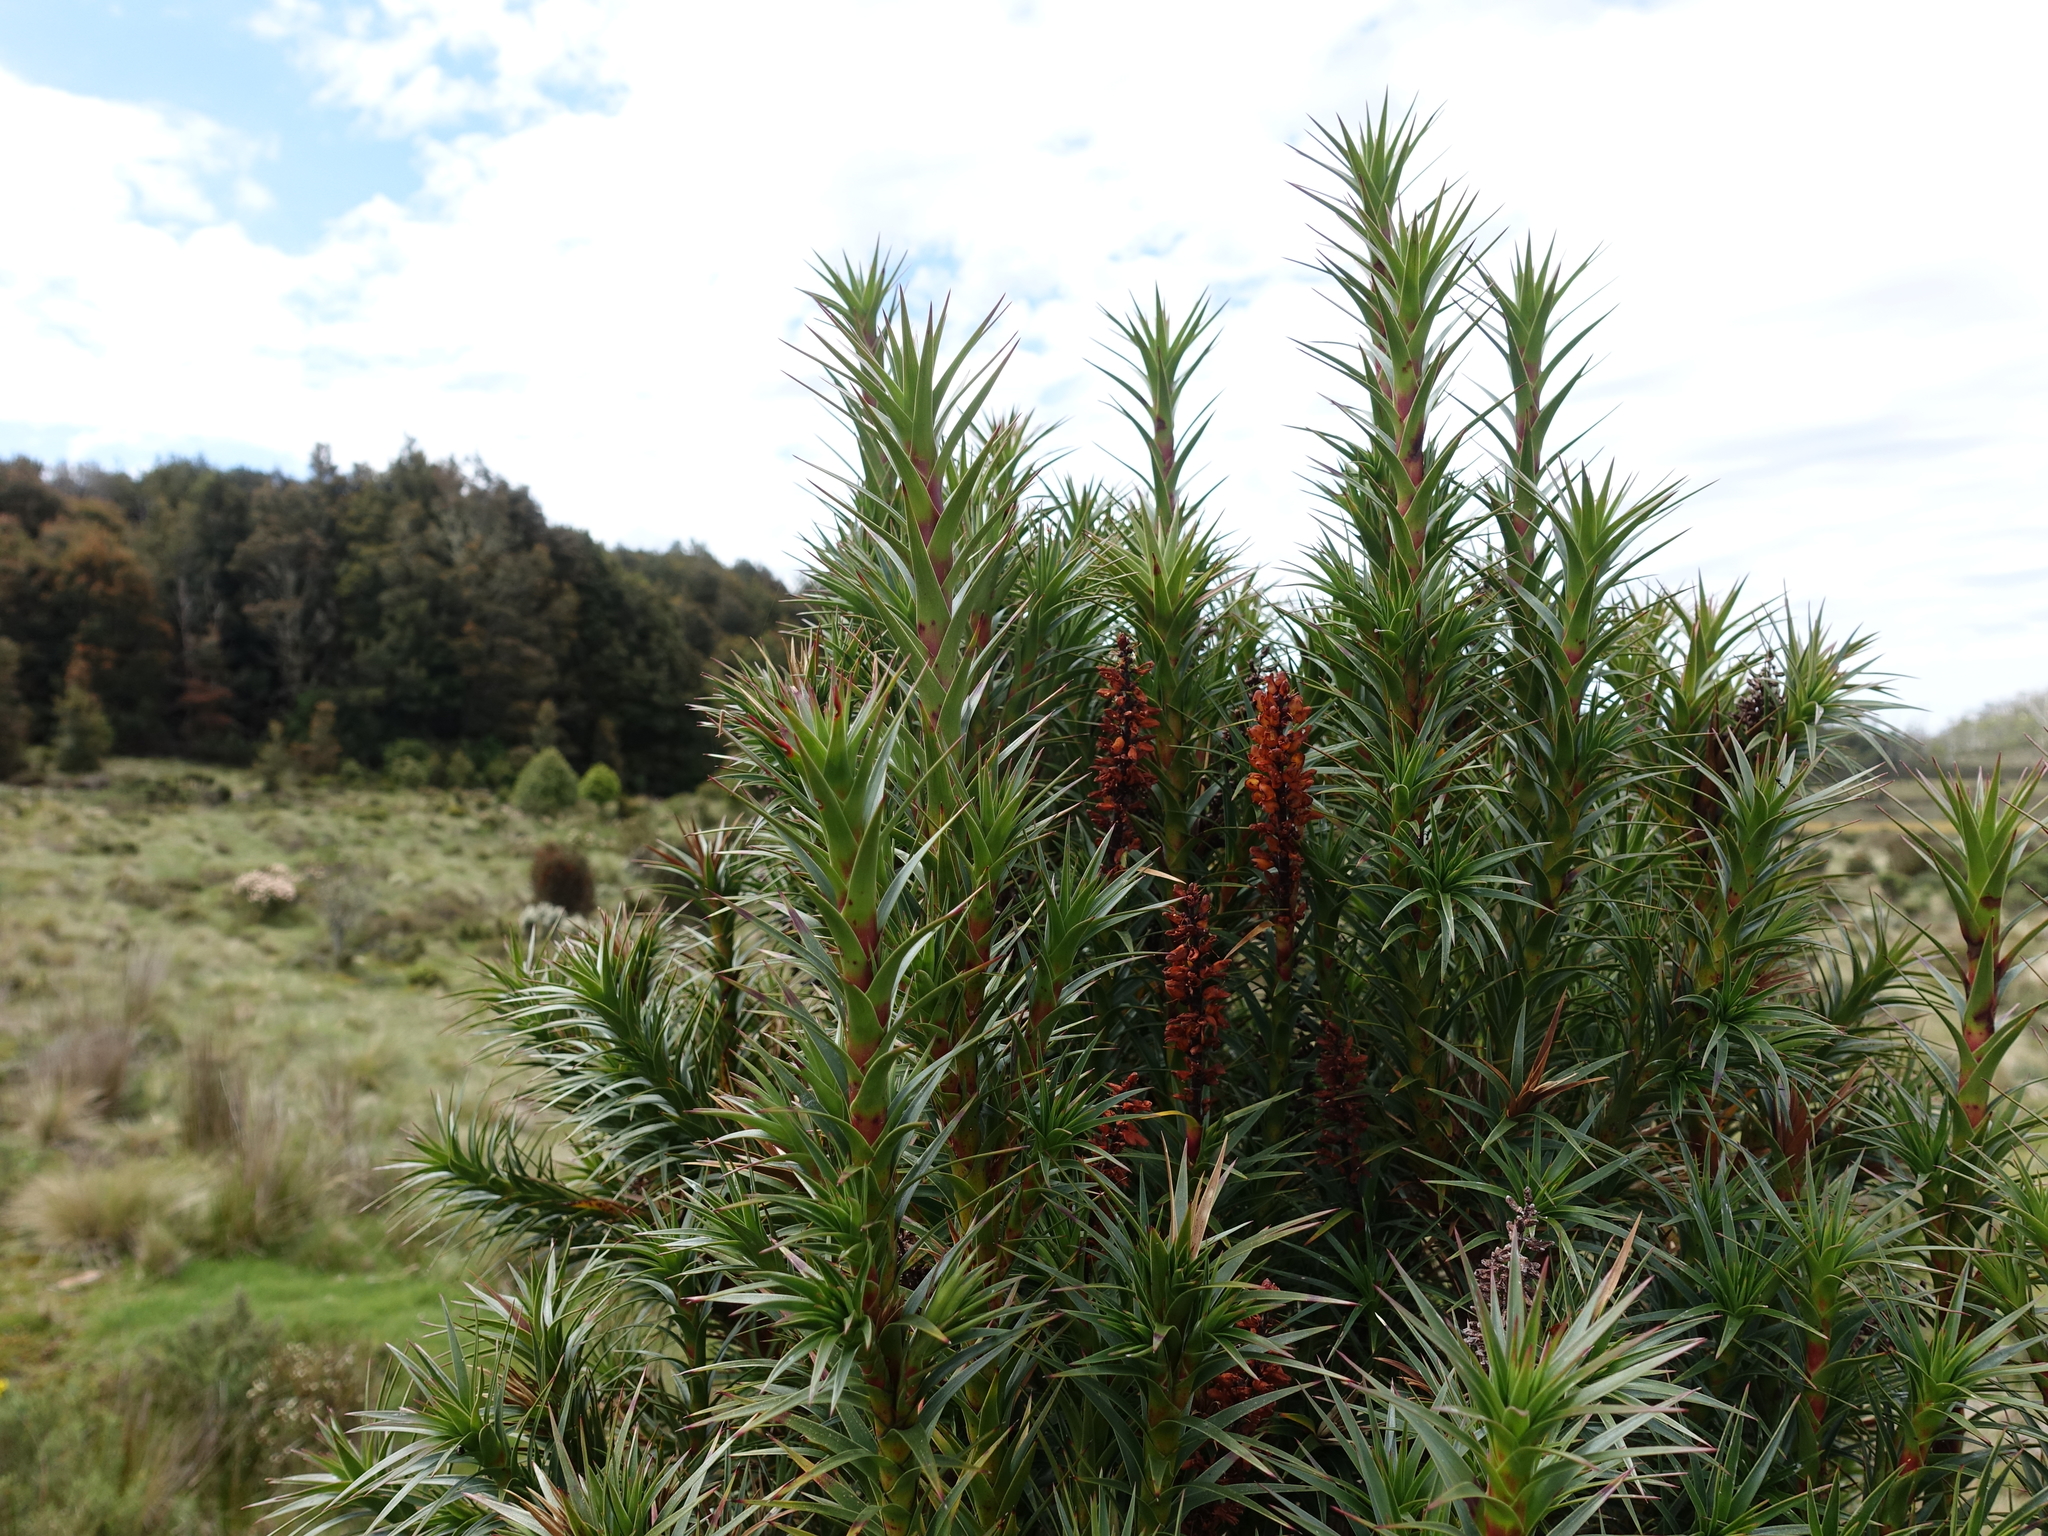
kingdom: Plantae
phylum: Tracheophyta
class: Magnoliopsida
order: Ericales
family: Ericaceae
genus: Dracophyllum
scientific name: Dracophyllum persistentifolium
